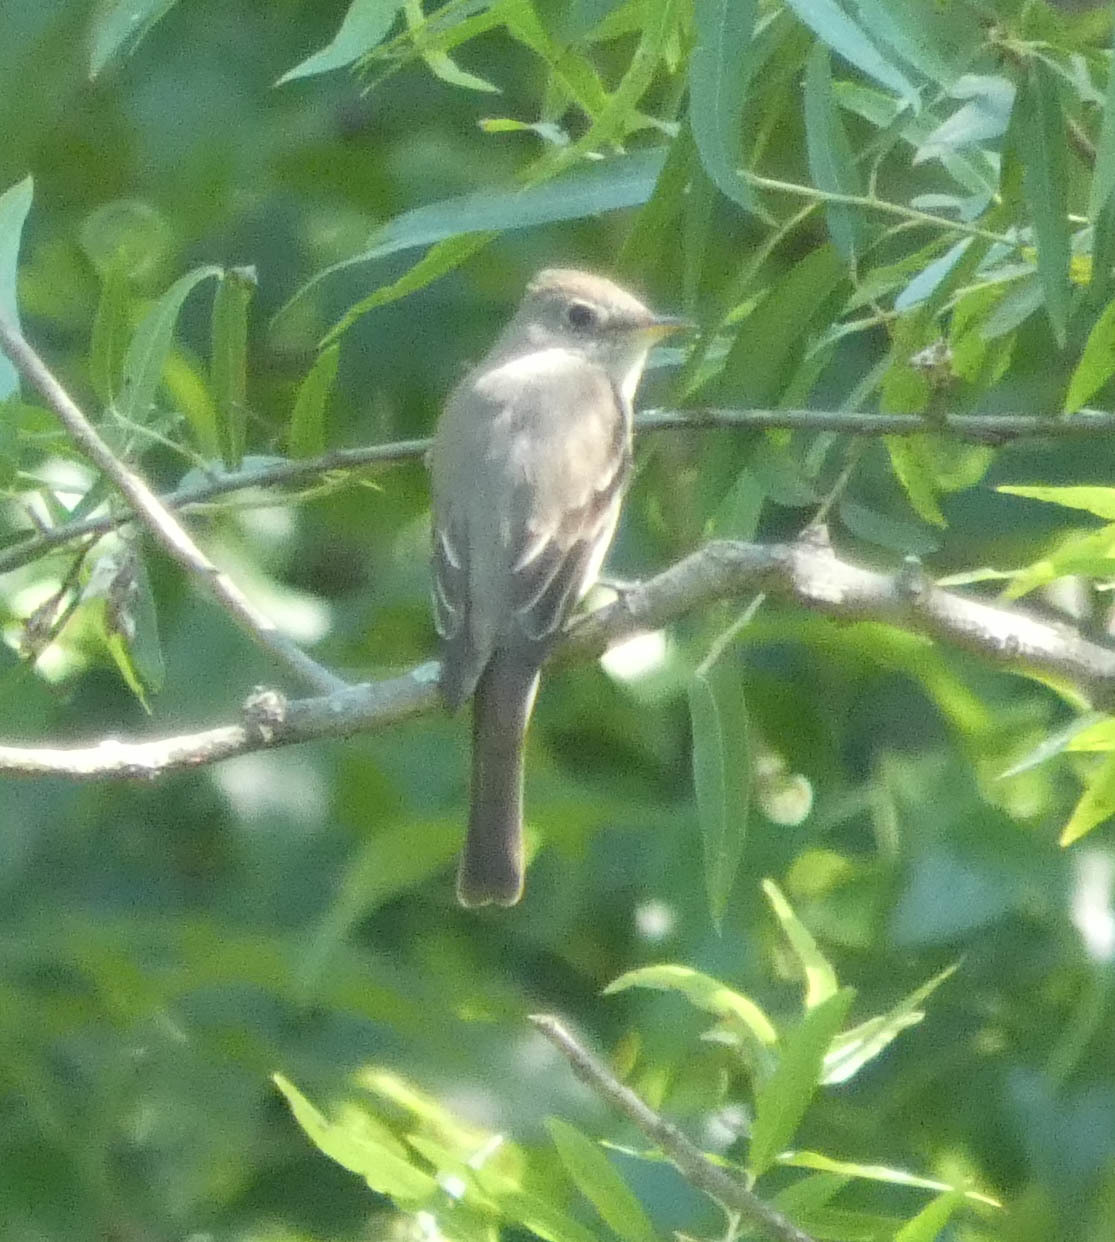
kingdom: Animalia
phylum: Chordata
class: Aves
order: Passeriformes
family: Tyrannidae
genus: Contopus
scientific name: Contopus virens
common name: Eastern wood-pewee
